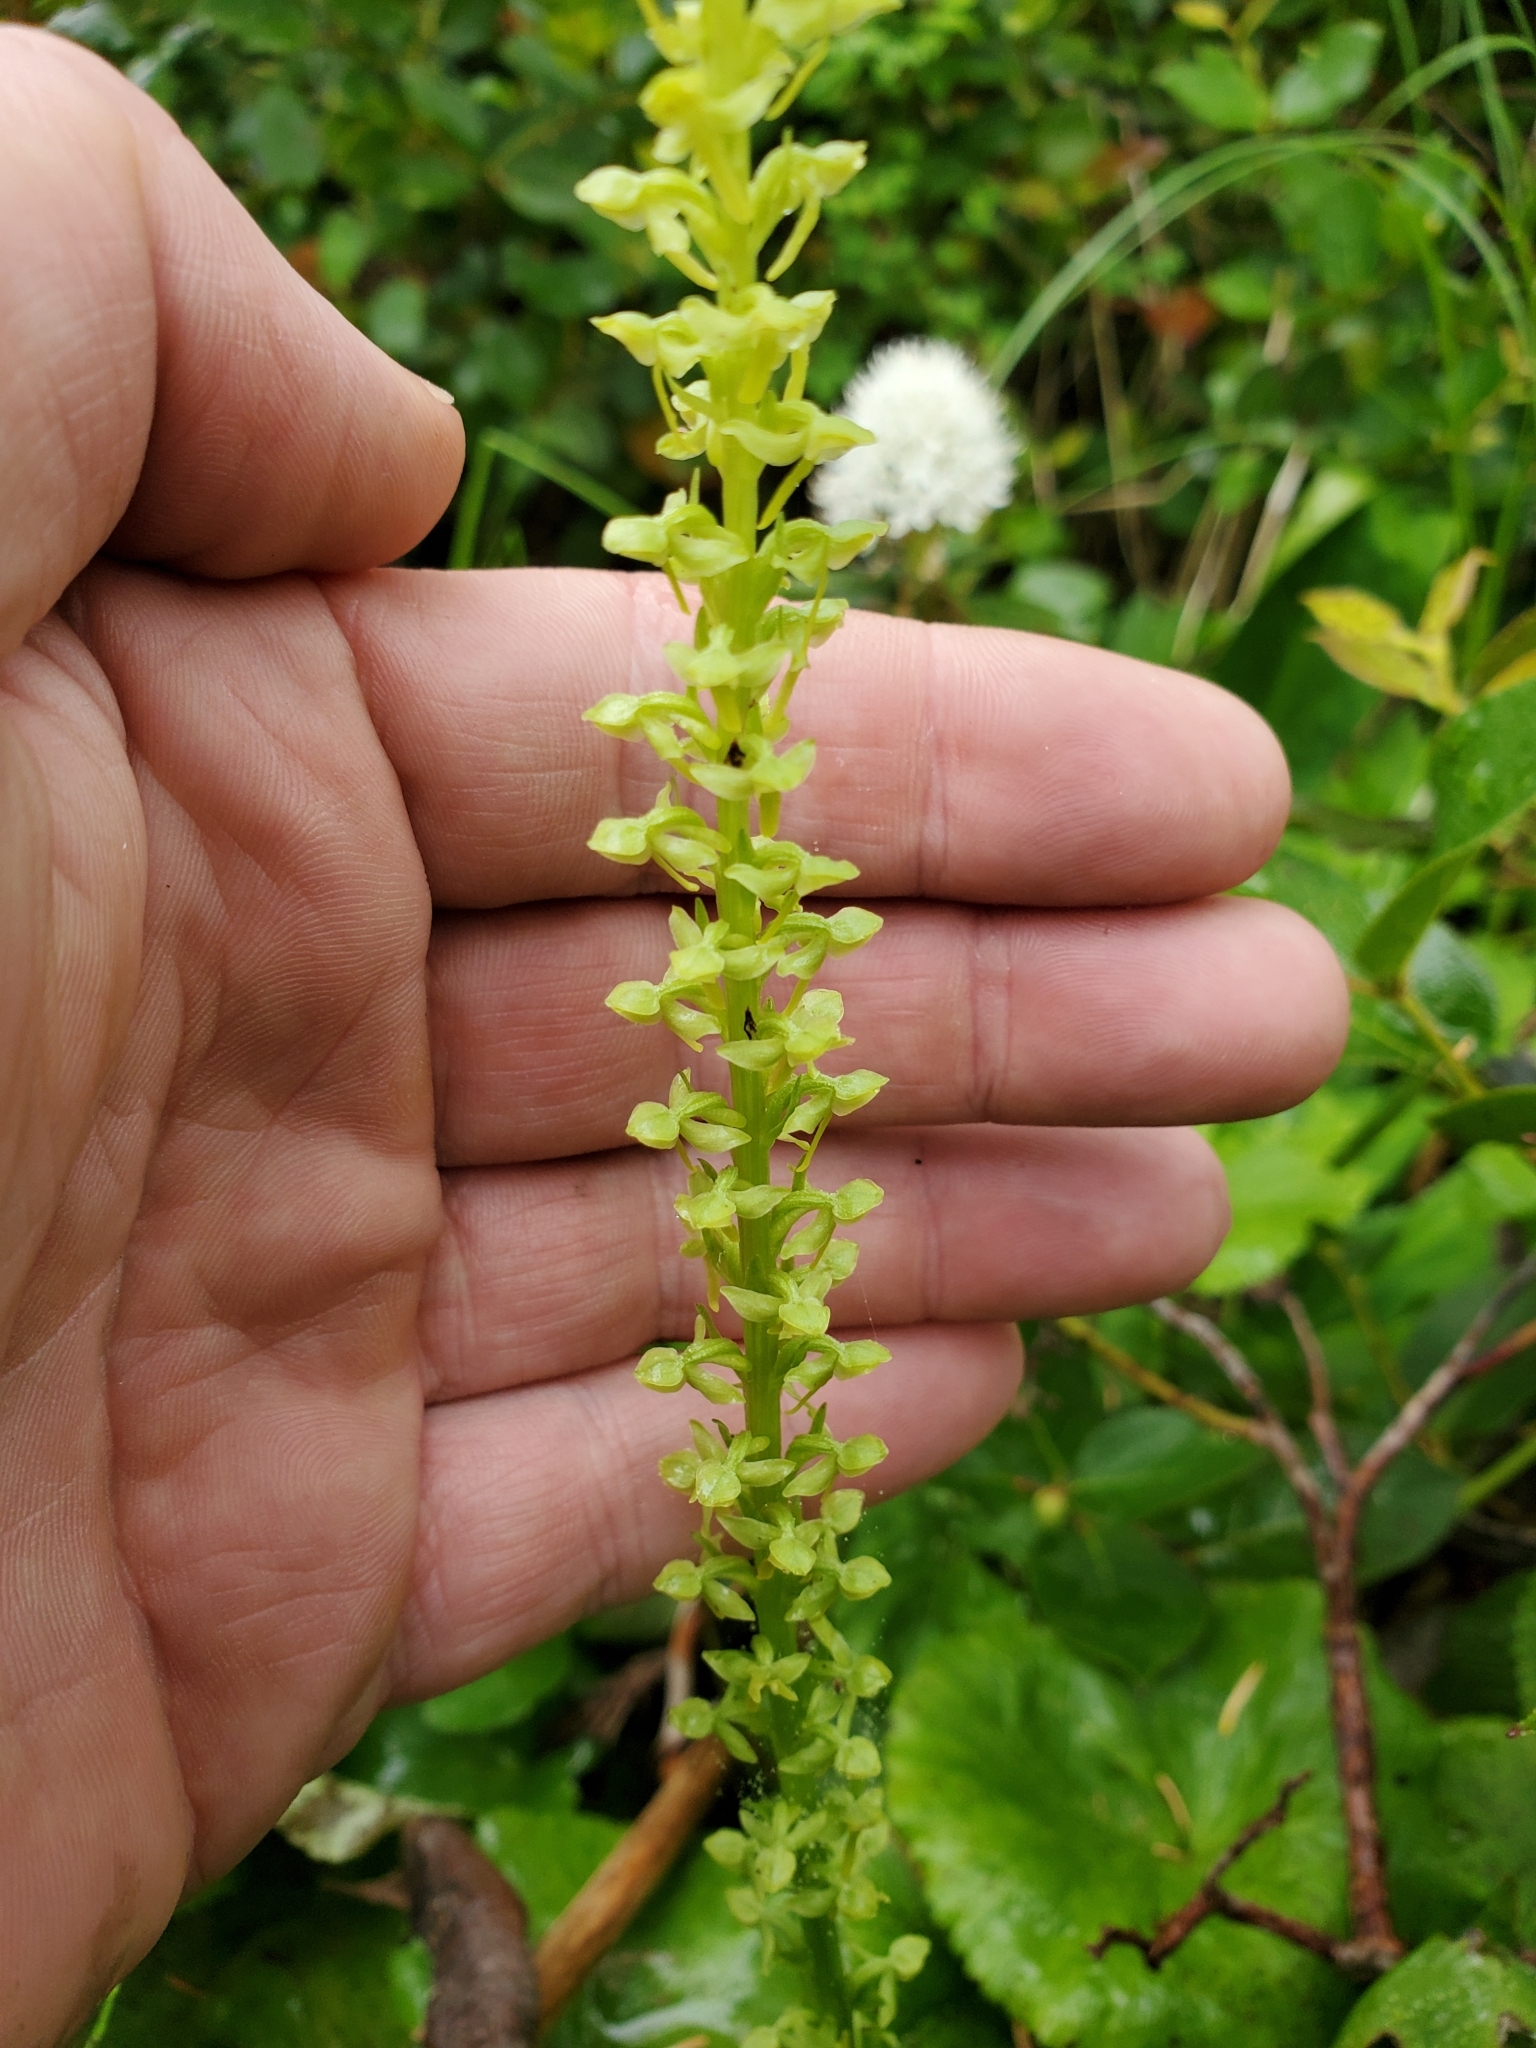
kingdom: Plantae
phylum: Tracheophyta
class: Liliopsida
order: Asparagales
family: Orchidaceae
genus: Platanthera
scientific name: Platanthera stricta
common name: Slender bog orchid
